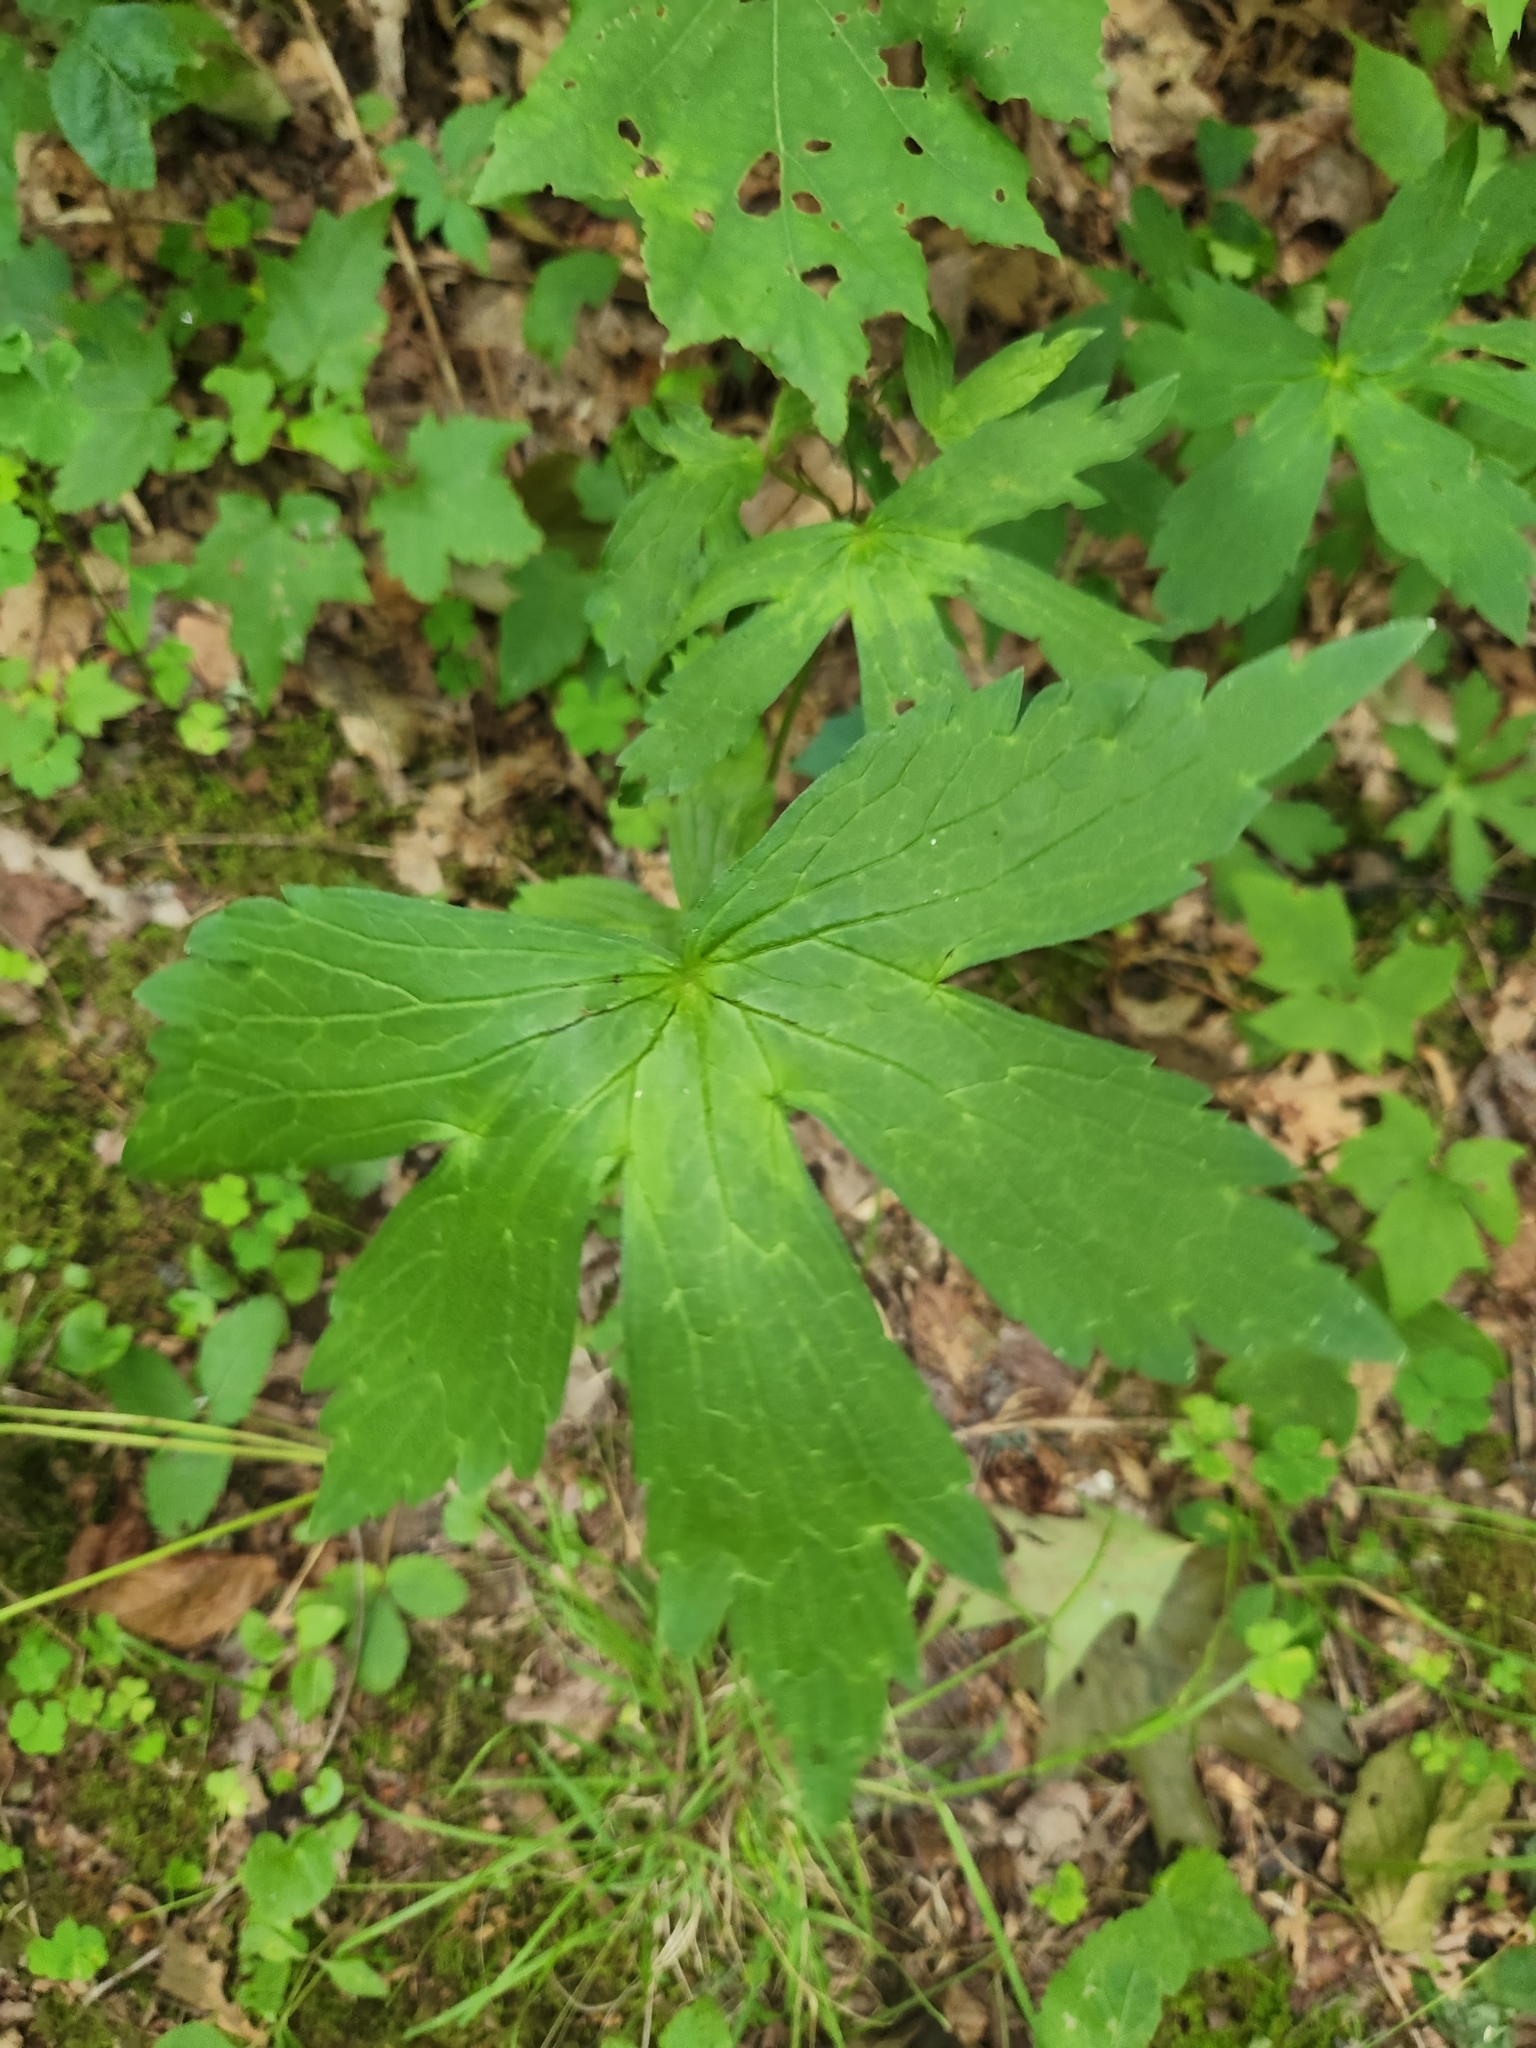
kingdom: Plantae
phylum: Tracheophyta
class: Magnoliopsida
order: Geraniales
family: Geraniaceae
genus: Geranium
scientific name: Geranium maculatum
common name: Spotted geranium
